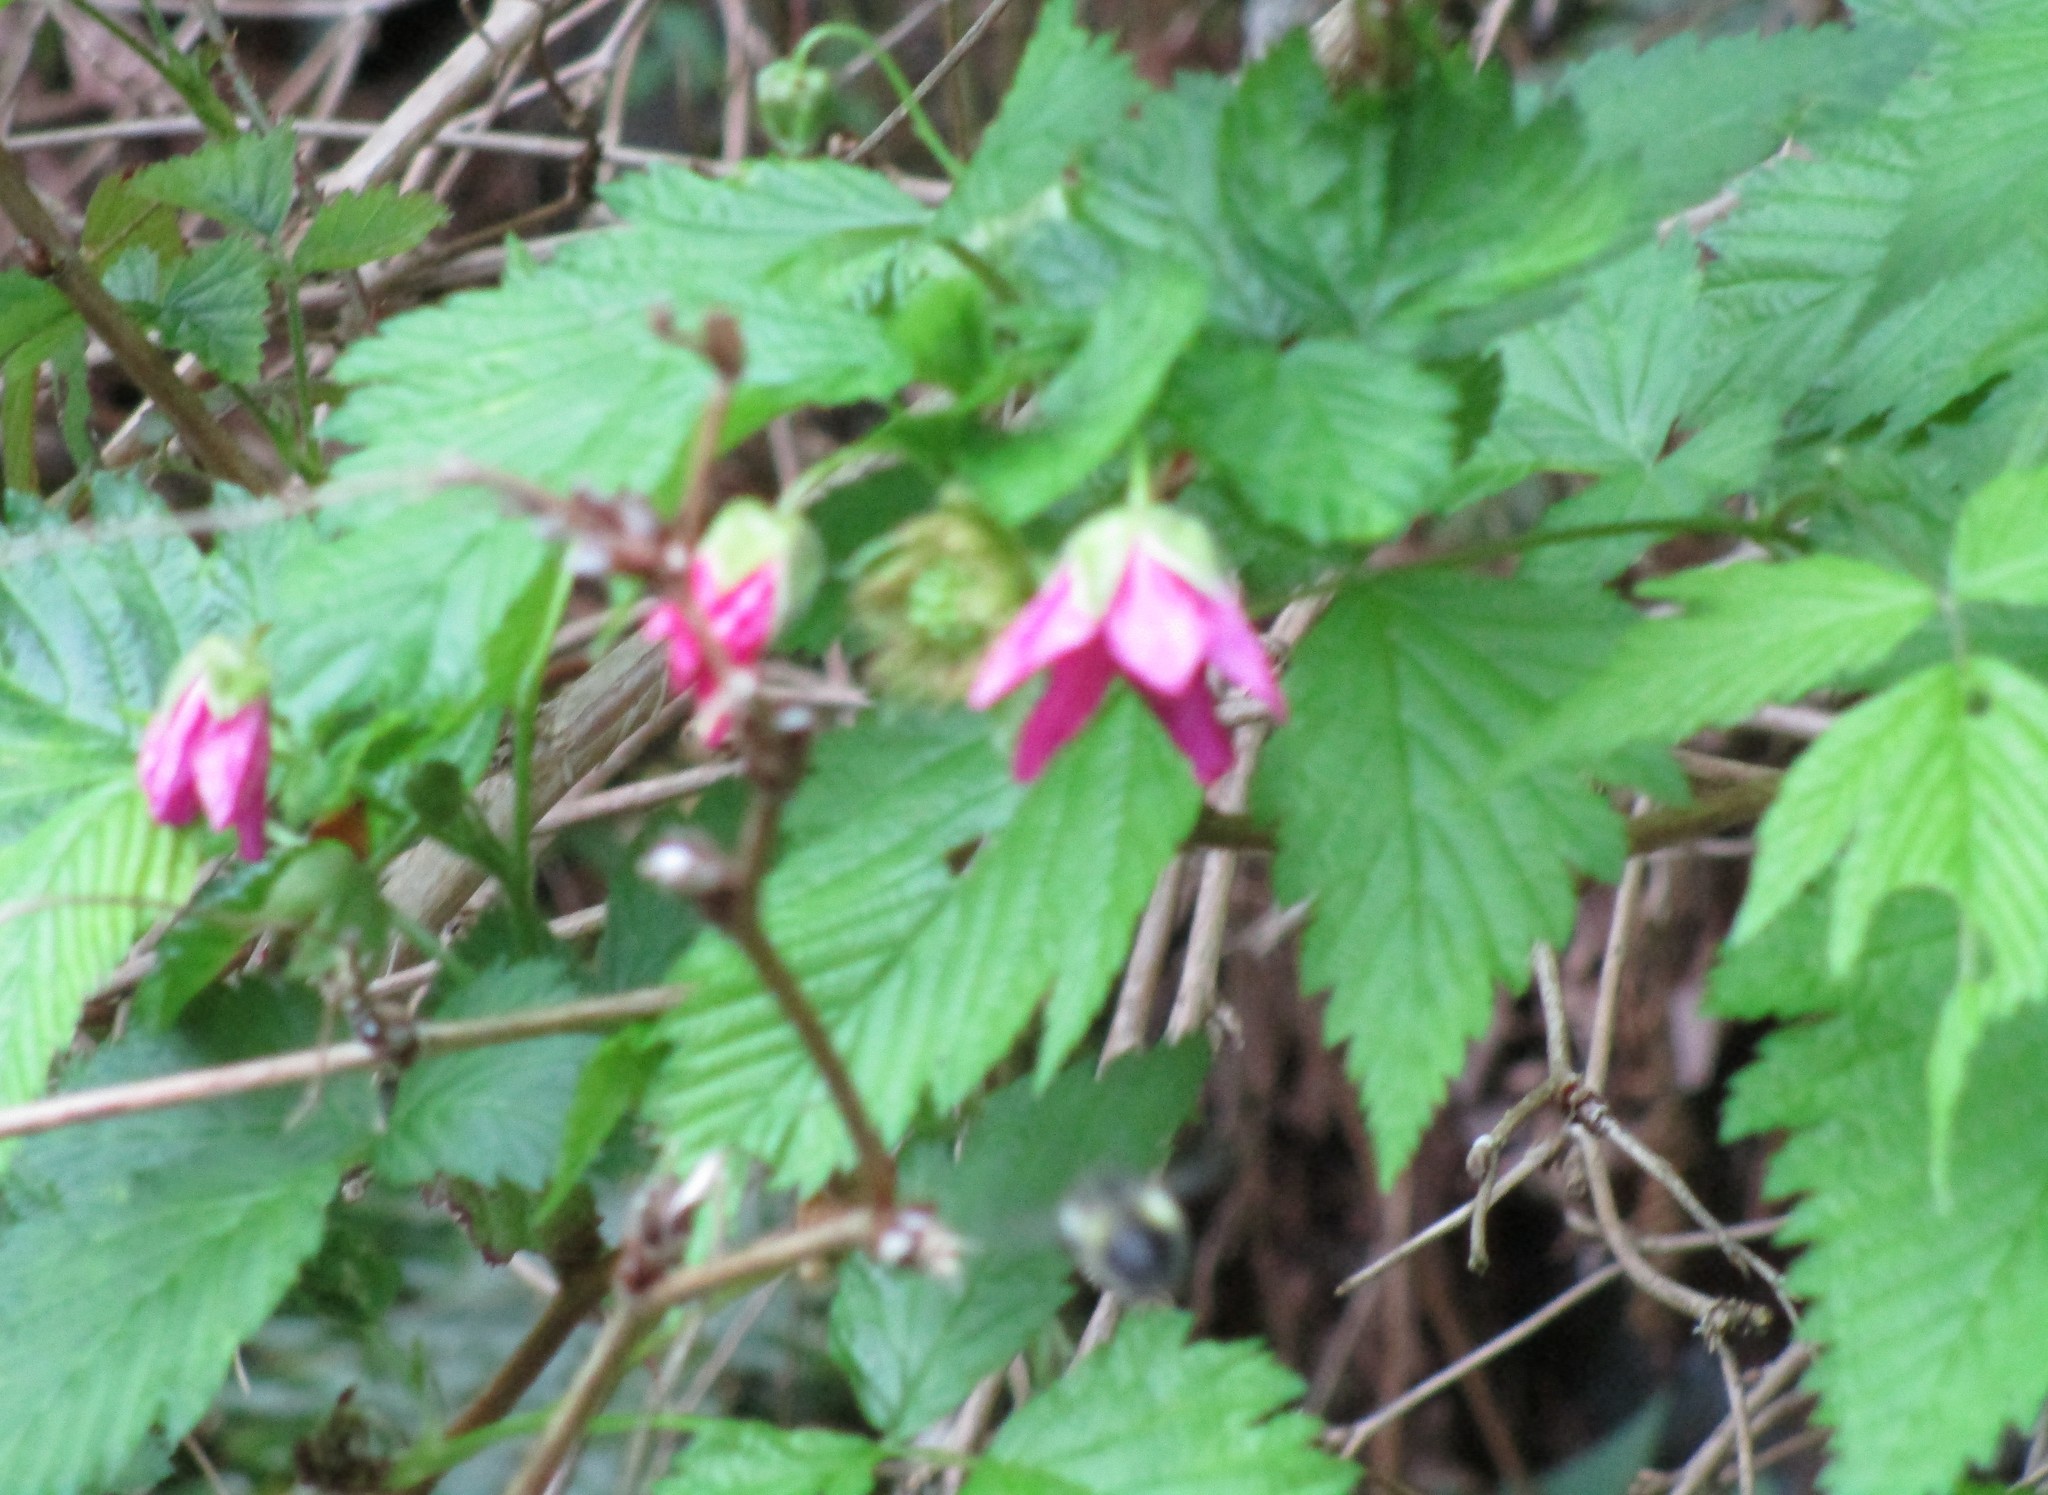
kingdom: Plantae
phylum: Tracheophyta
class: Magnoliopsida
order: Rosales
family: Rosaceae
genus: Rubus
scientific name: Rubus spectabilis
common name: Salmonberry
